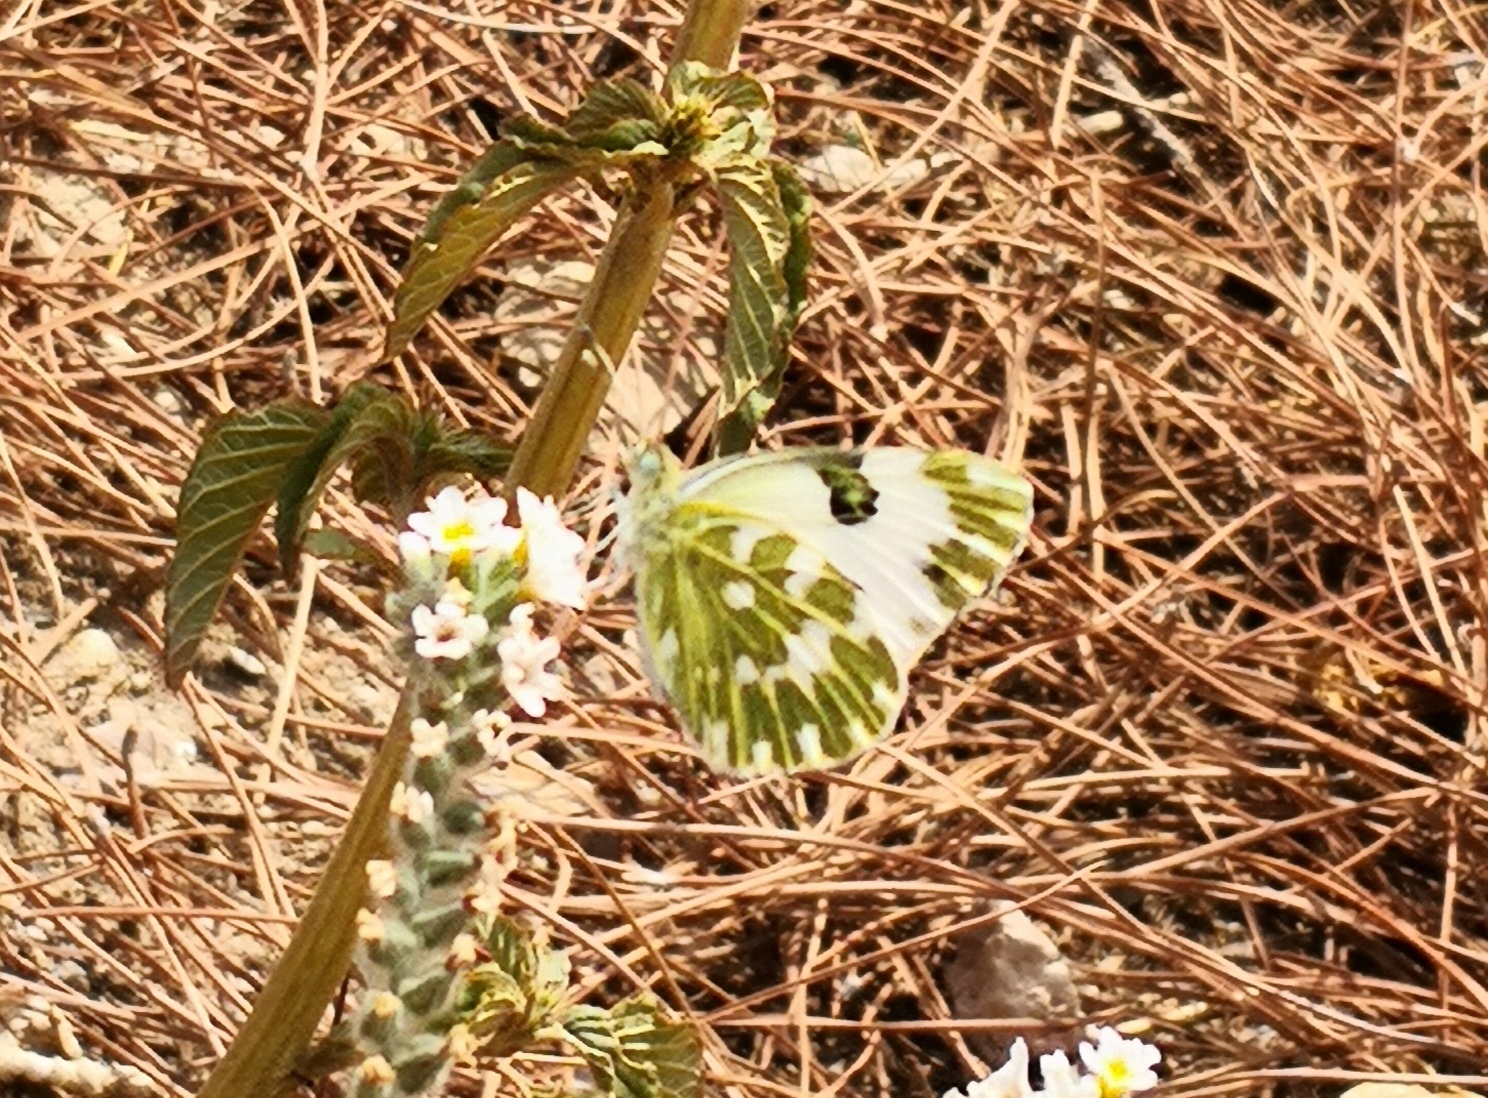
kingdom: Animalia
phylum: Arthropoda
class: Insecta
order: Lepidoptera
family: Pieridae
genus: Pontia
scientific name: Pontia edusa
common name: Eastern bath white
